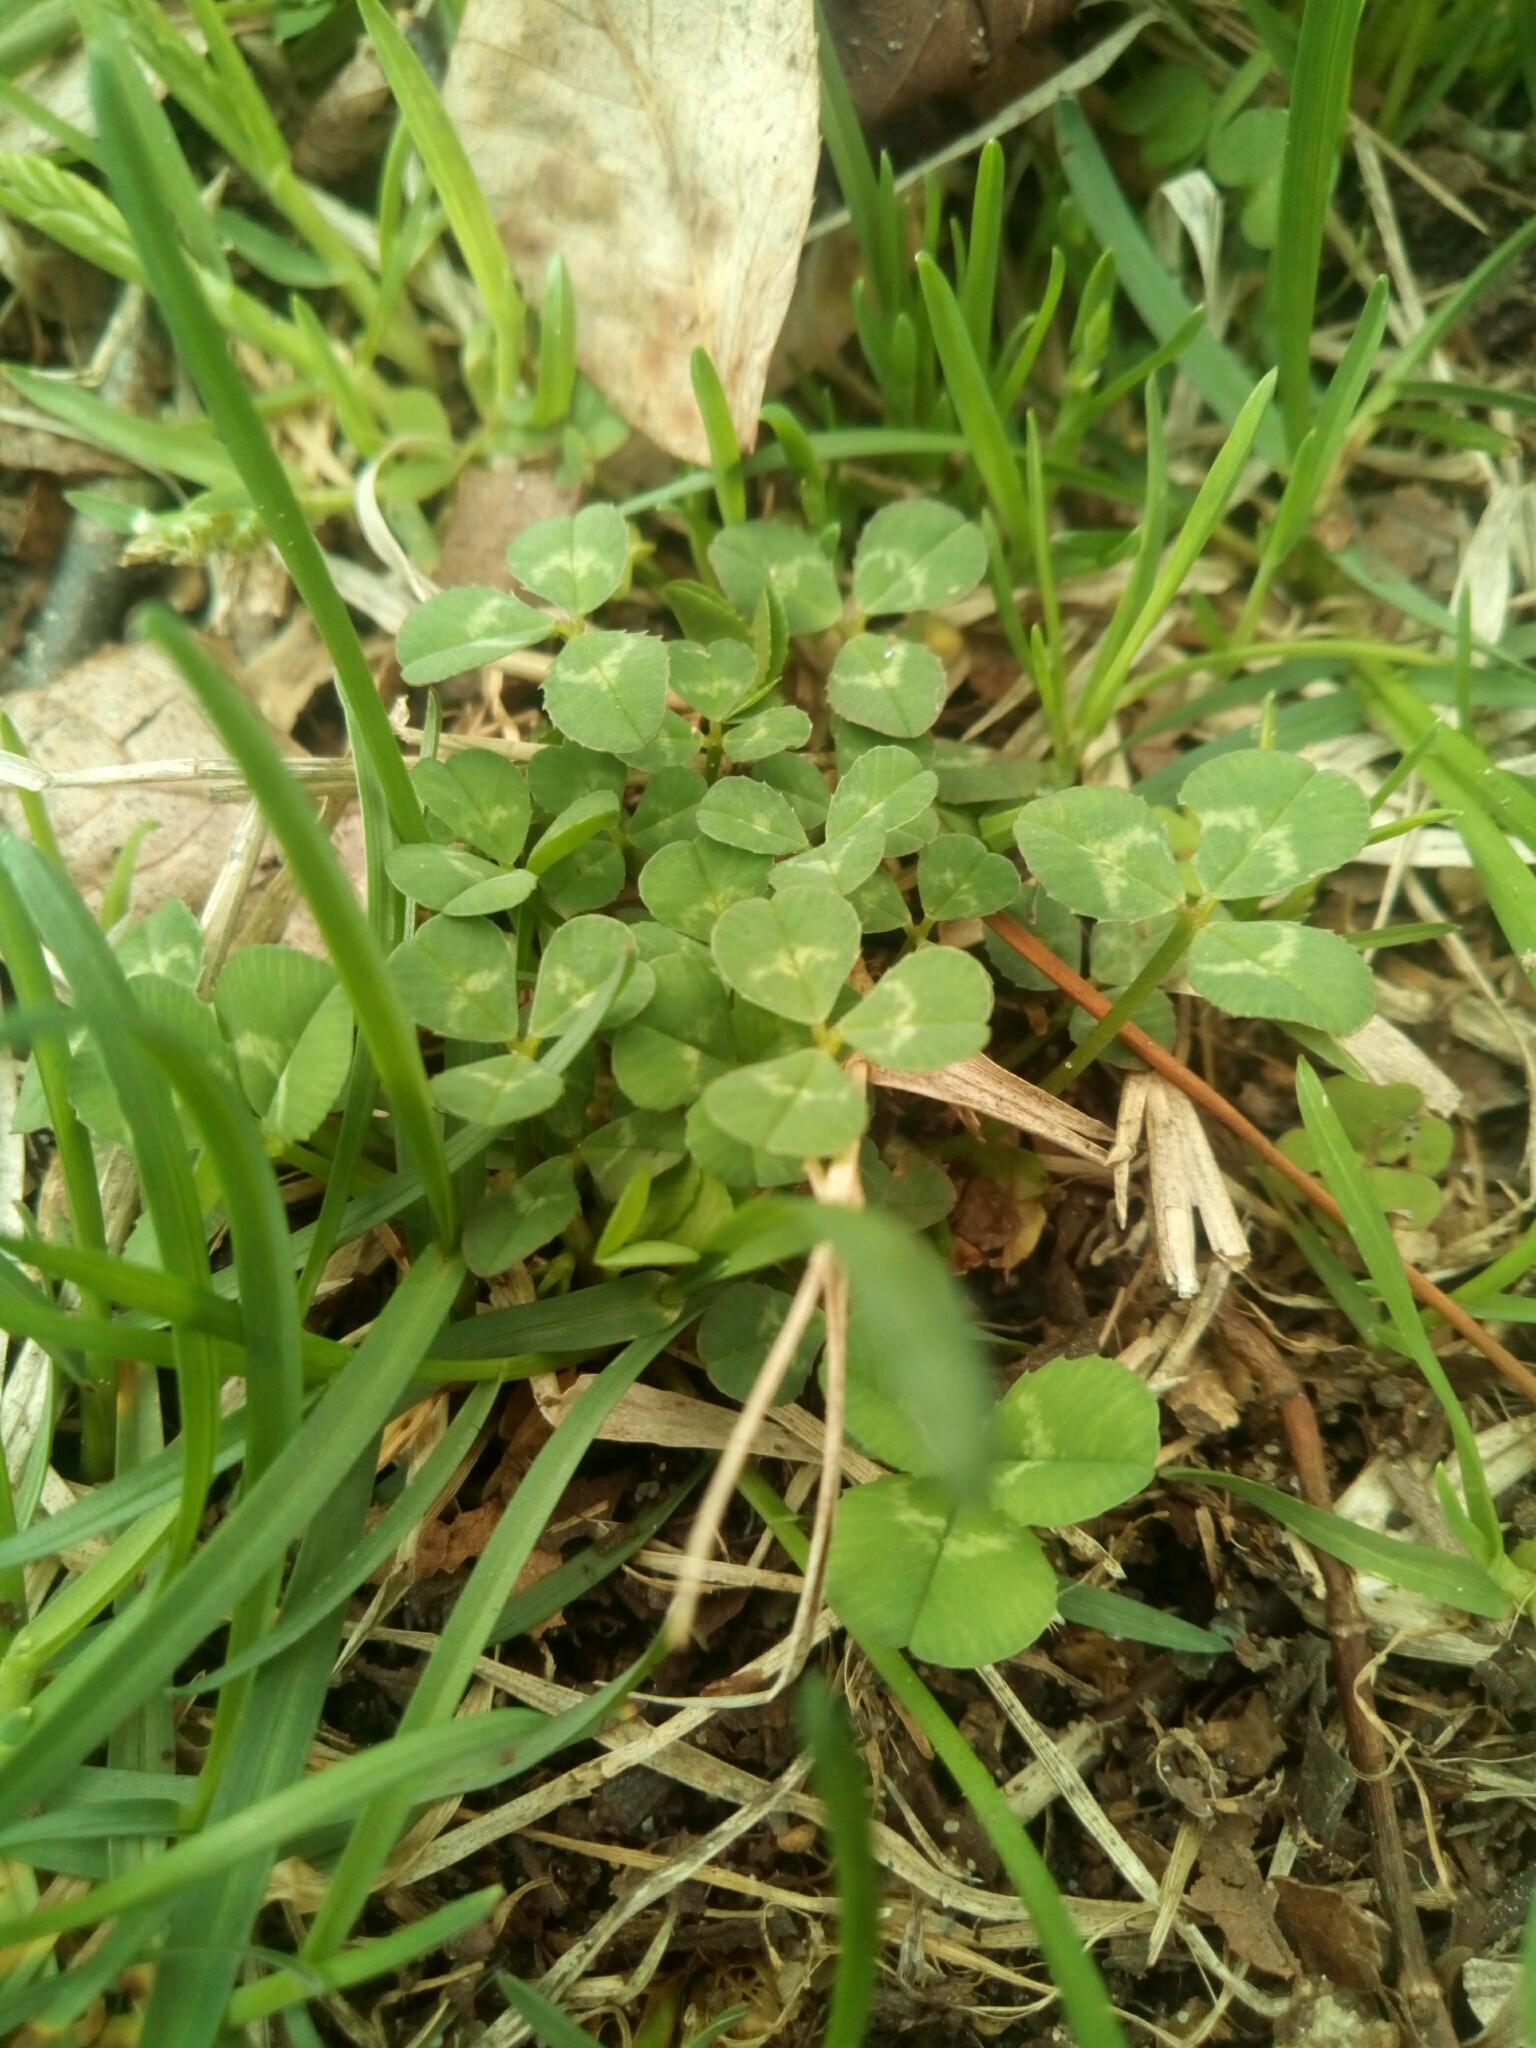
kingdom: Plantae
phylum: Tracheophyta
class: Magnoliopsida
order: Fabales
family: Fabaceae
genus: Trifolium
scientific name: Trifolium repens
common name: White clover
